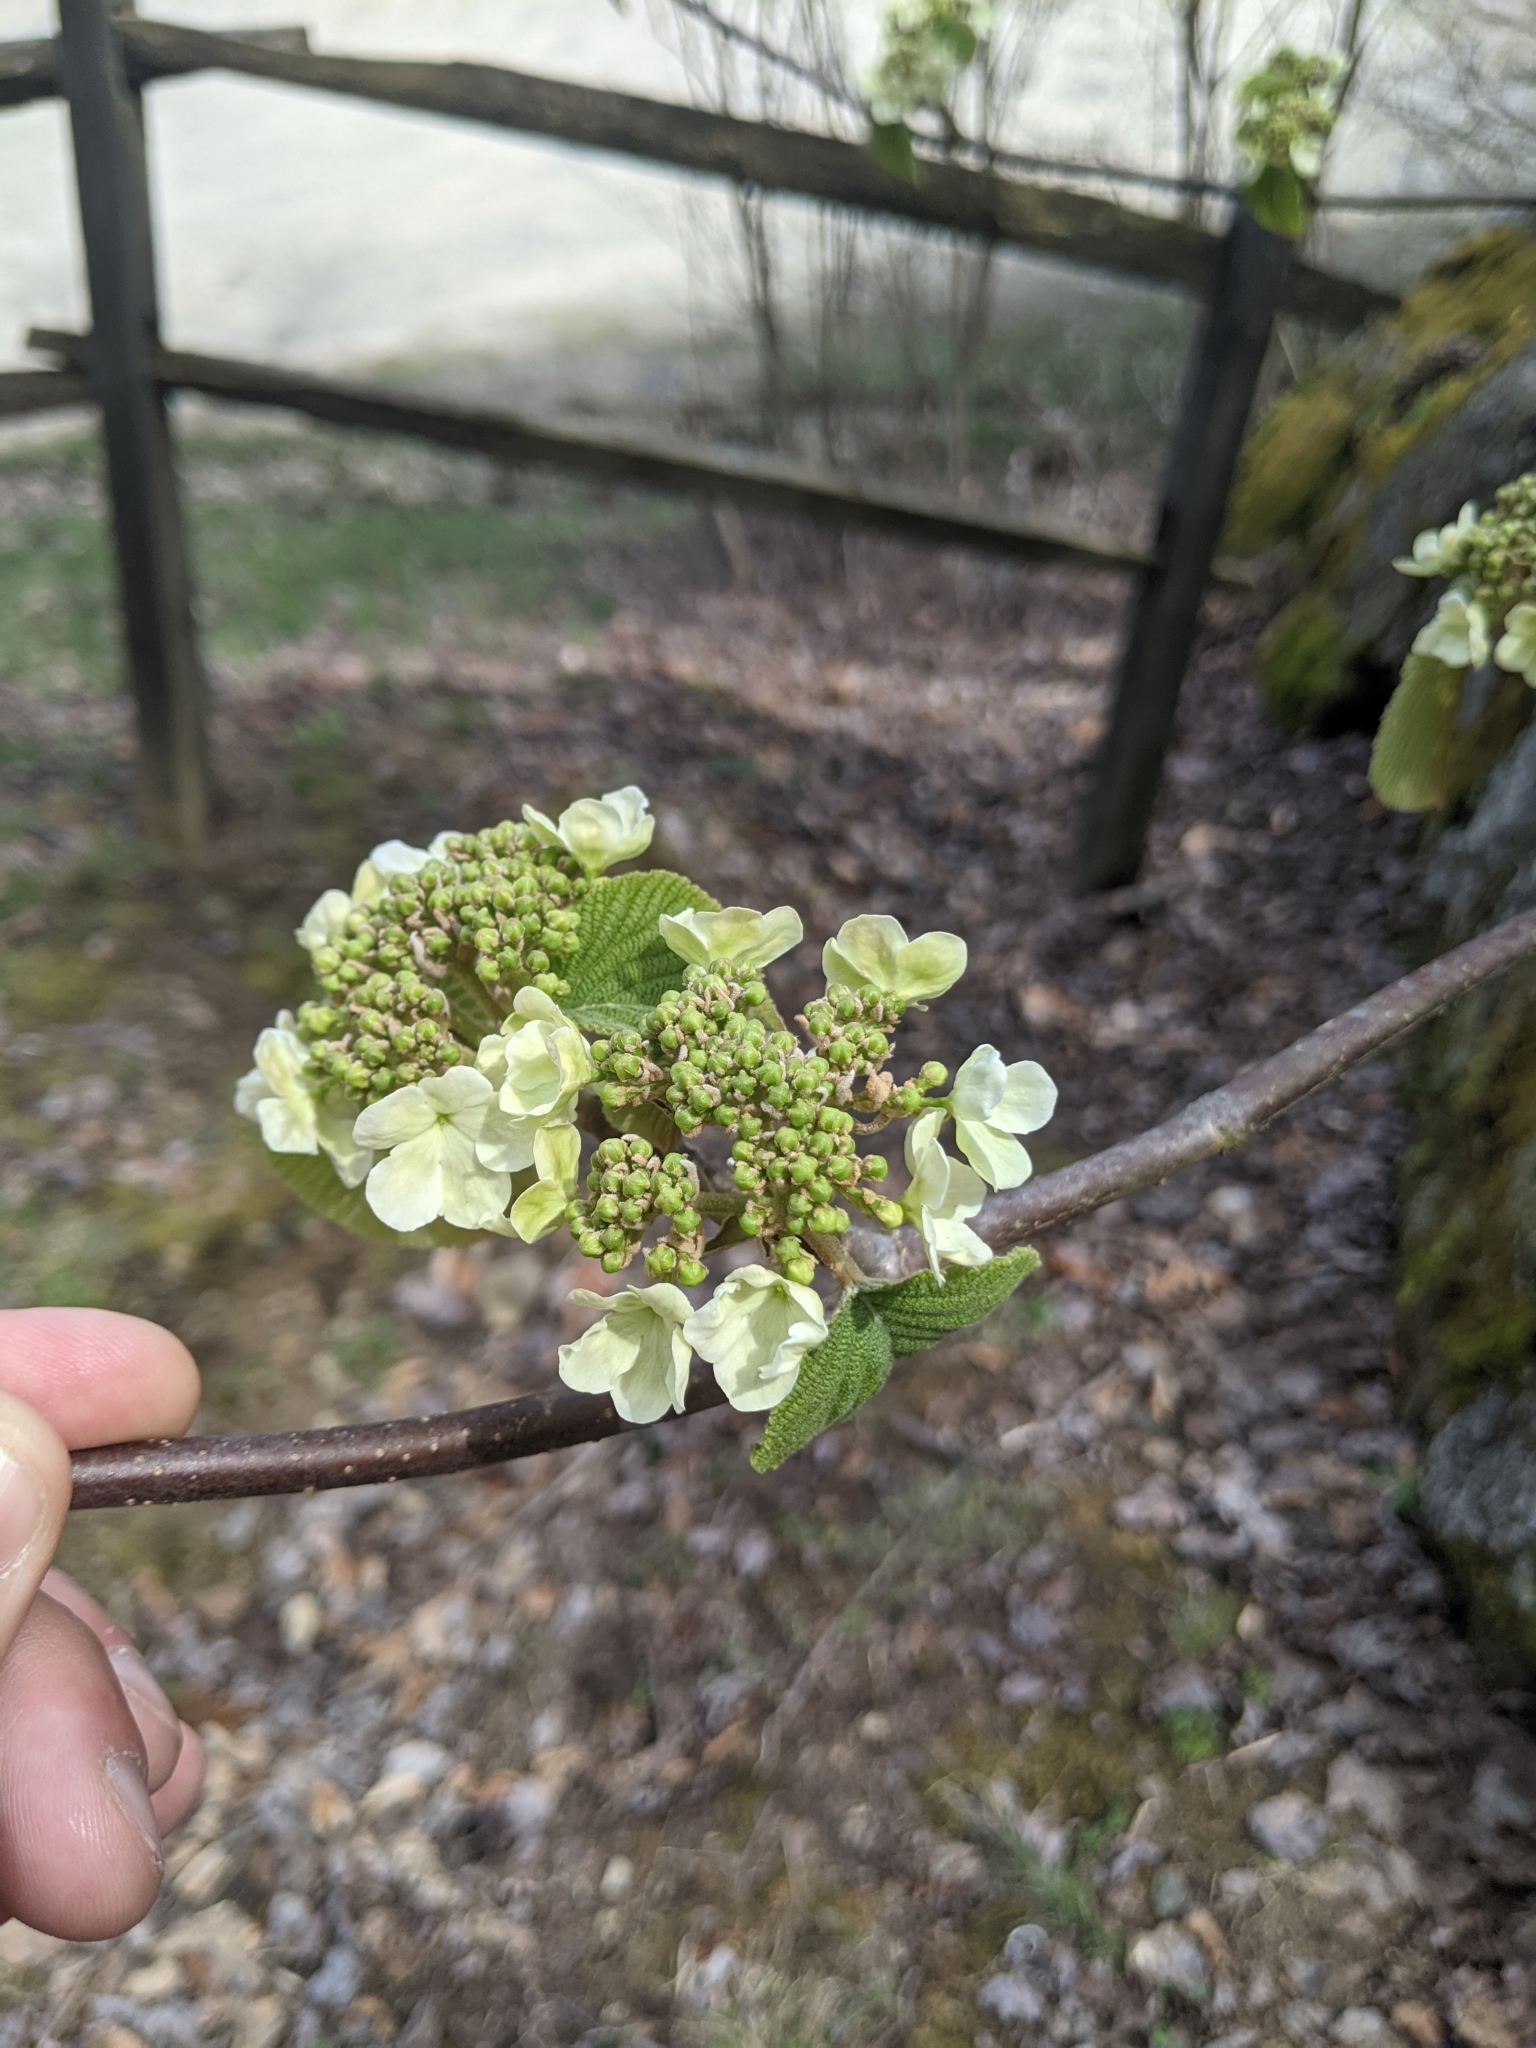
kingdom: Plantae
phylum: Tracheophyta
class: Magnoliopsida
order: Dipsacales
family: Viburnaceae
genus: Viburnum
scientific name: Viburnum lantanoides
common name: Hobblebush
